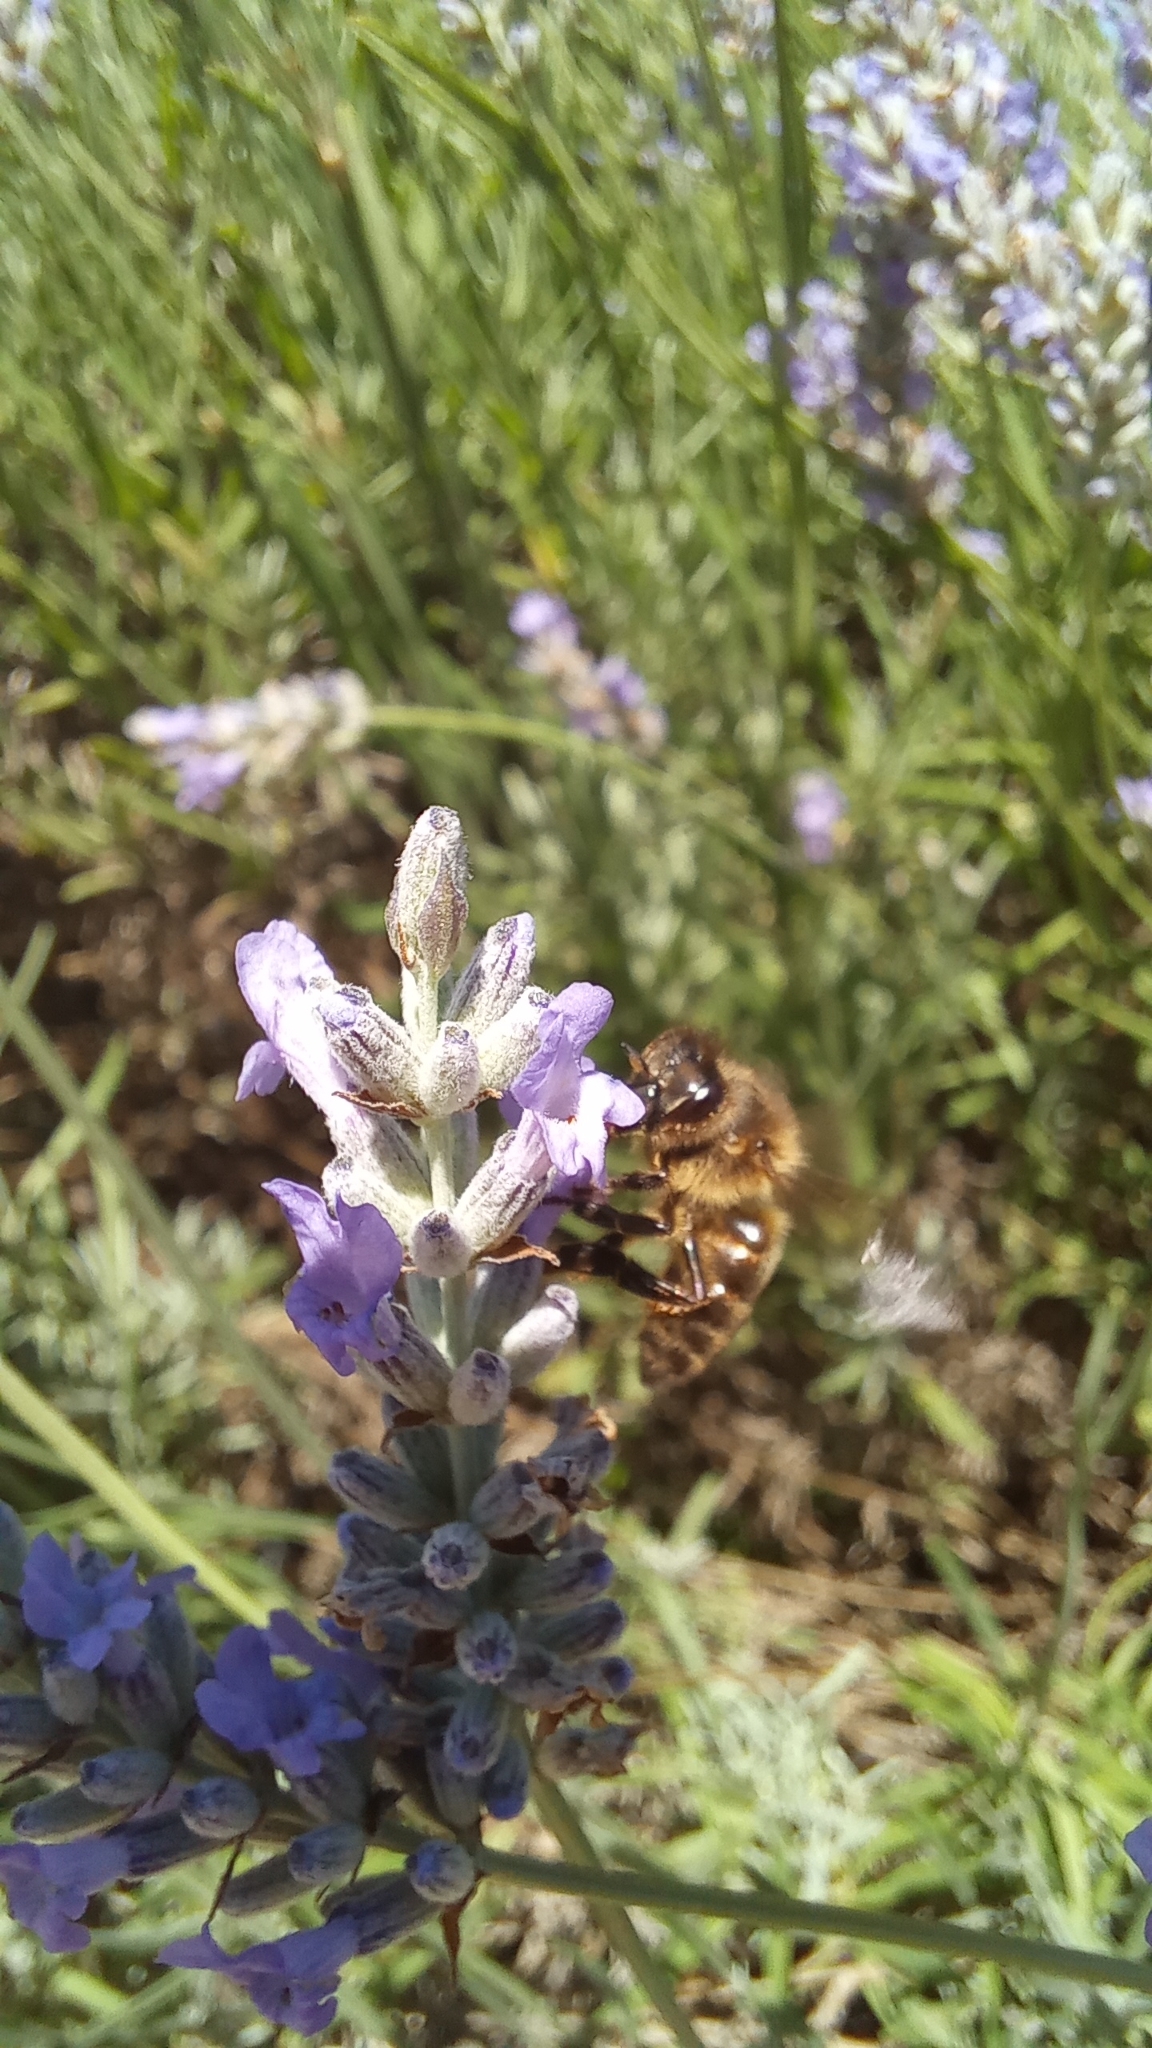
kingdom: Animalia
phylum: Arthropoda
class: Insecta
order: Hymenoptera
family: Apidae
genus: Apis
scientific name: Apis mellifera
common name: Honey bee
